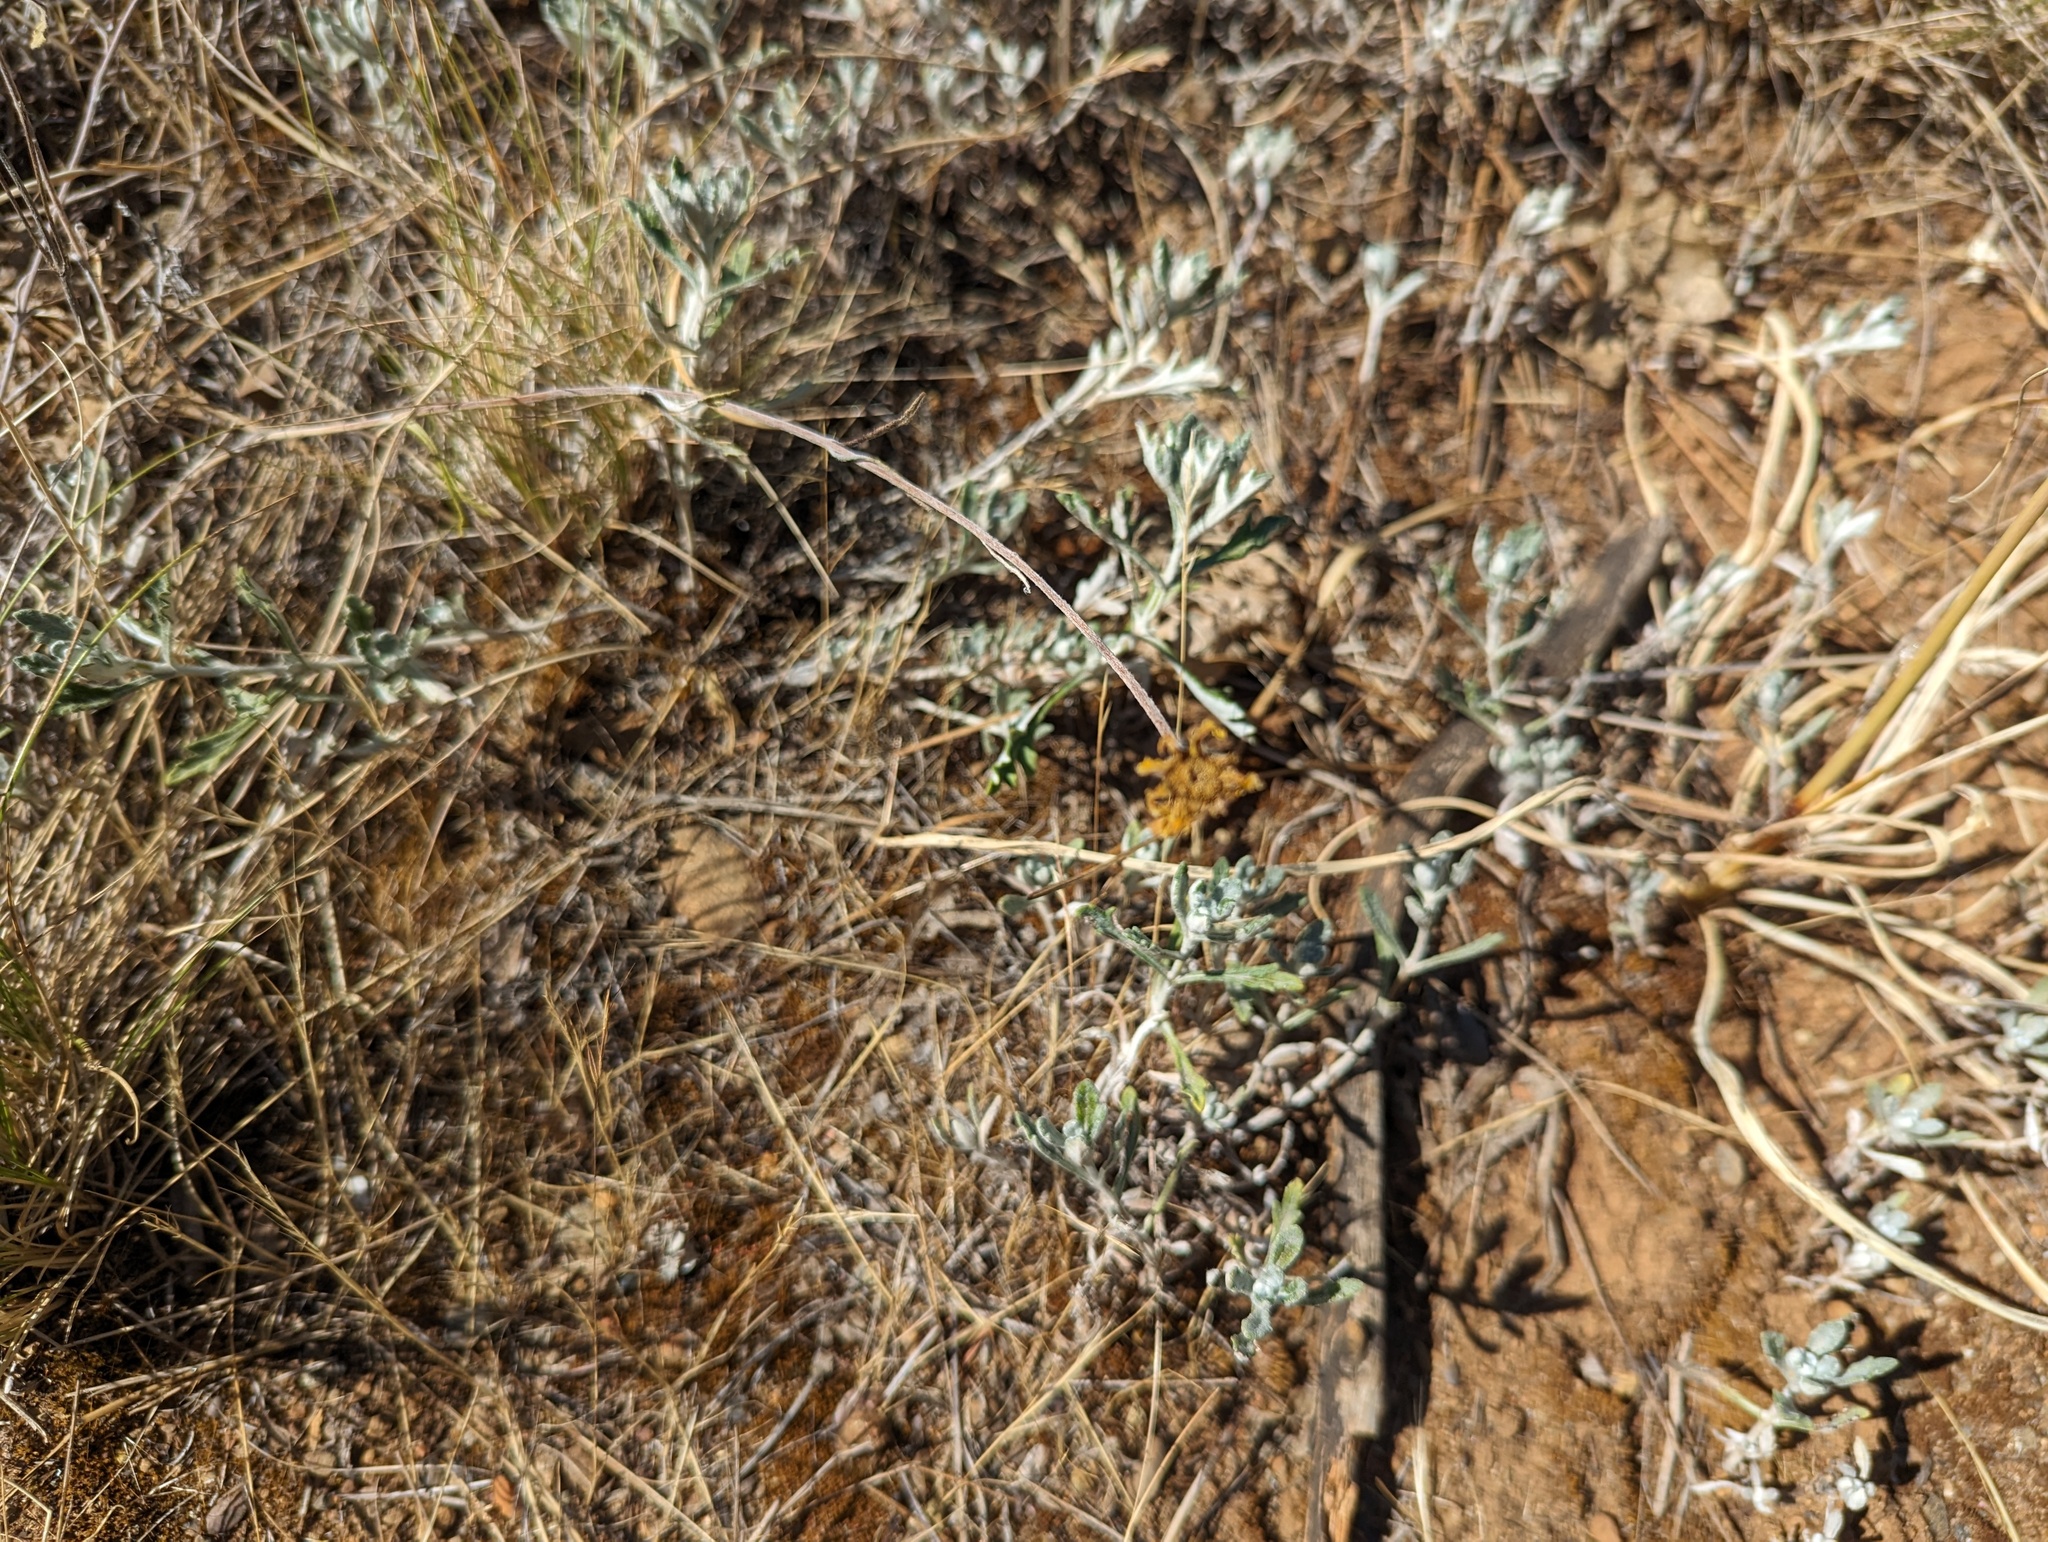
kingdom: Plantae
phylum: Tracheophyta
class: Magnoliopsida
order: Asterales
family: Asteraceae
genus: Eriophyllum
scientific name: Eriophyllum lanatum
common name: Common woolly-sunflower
